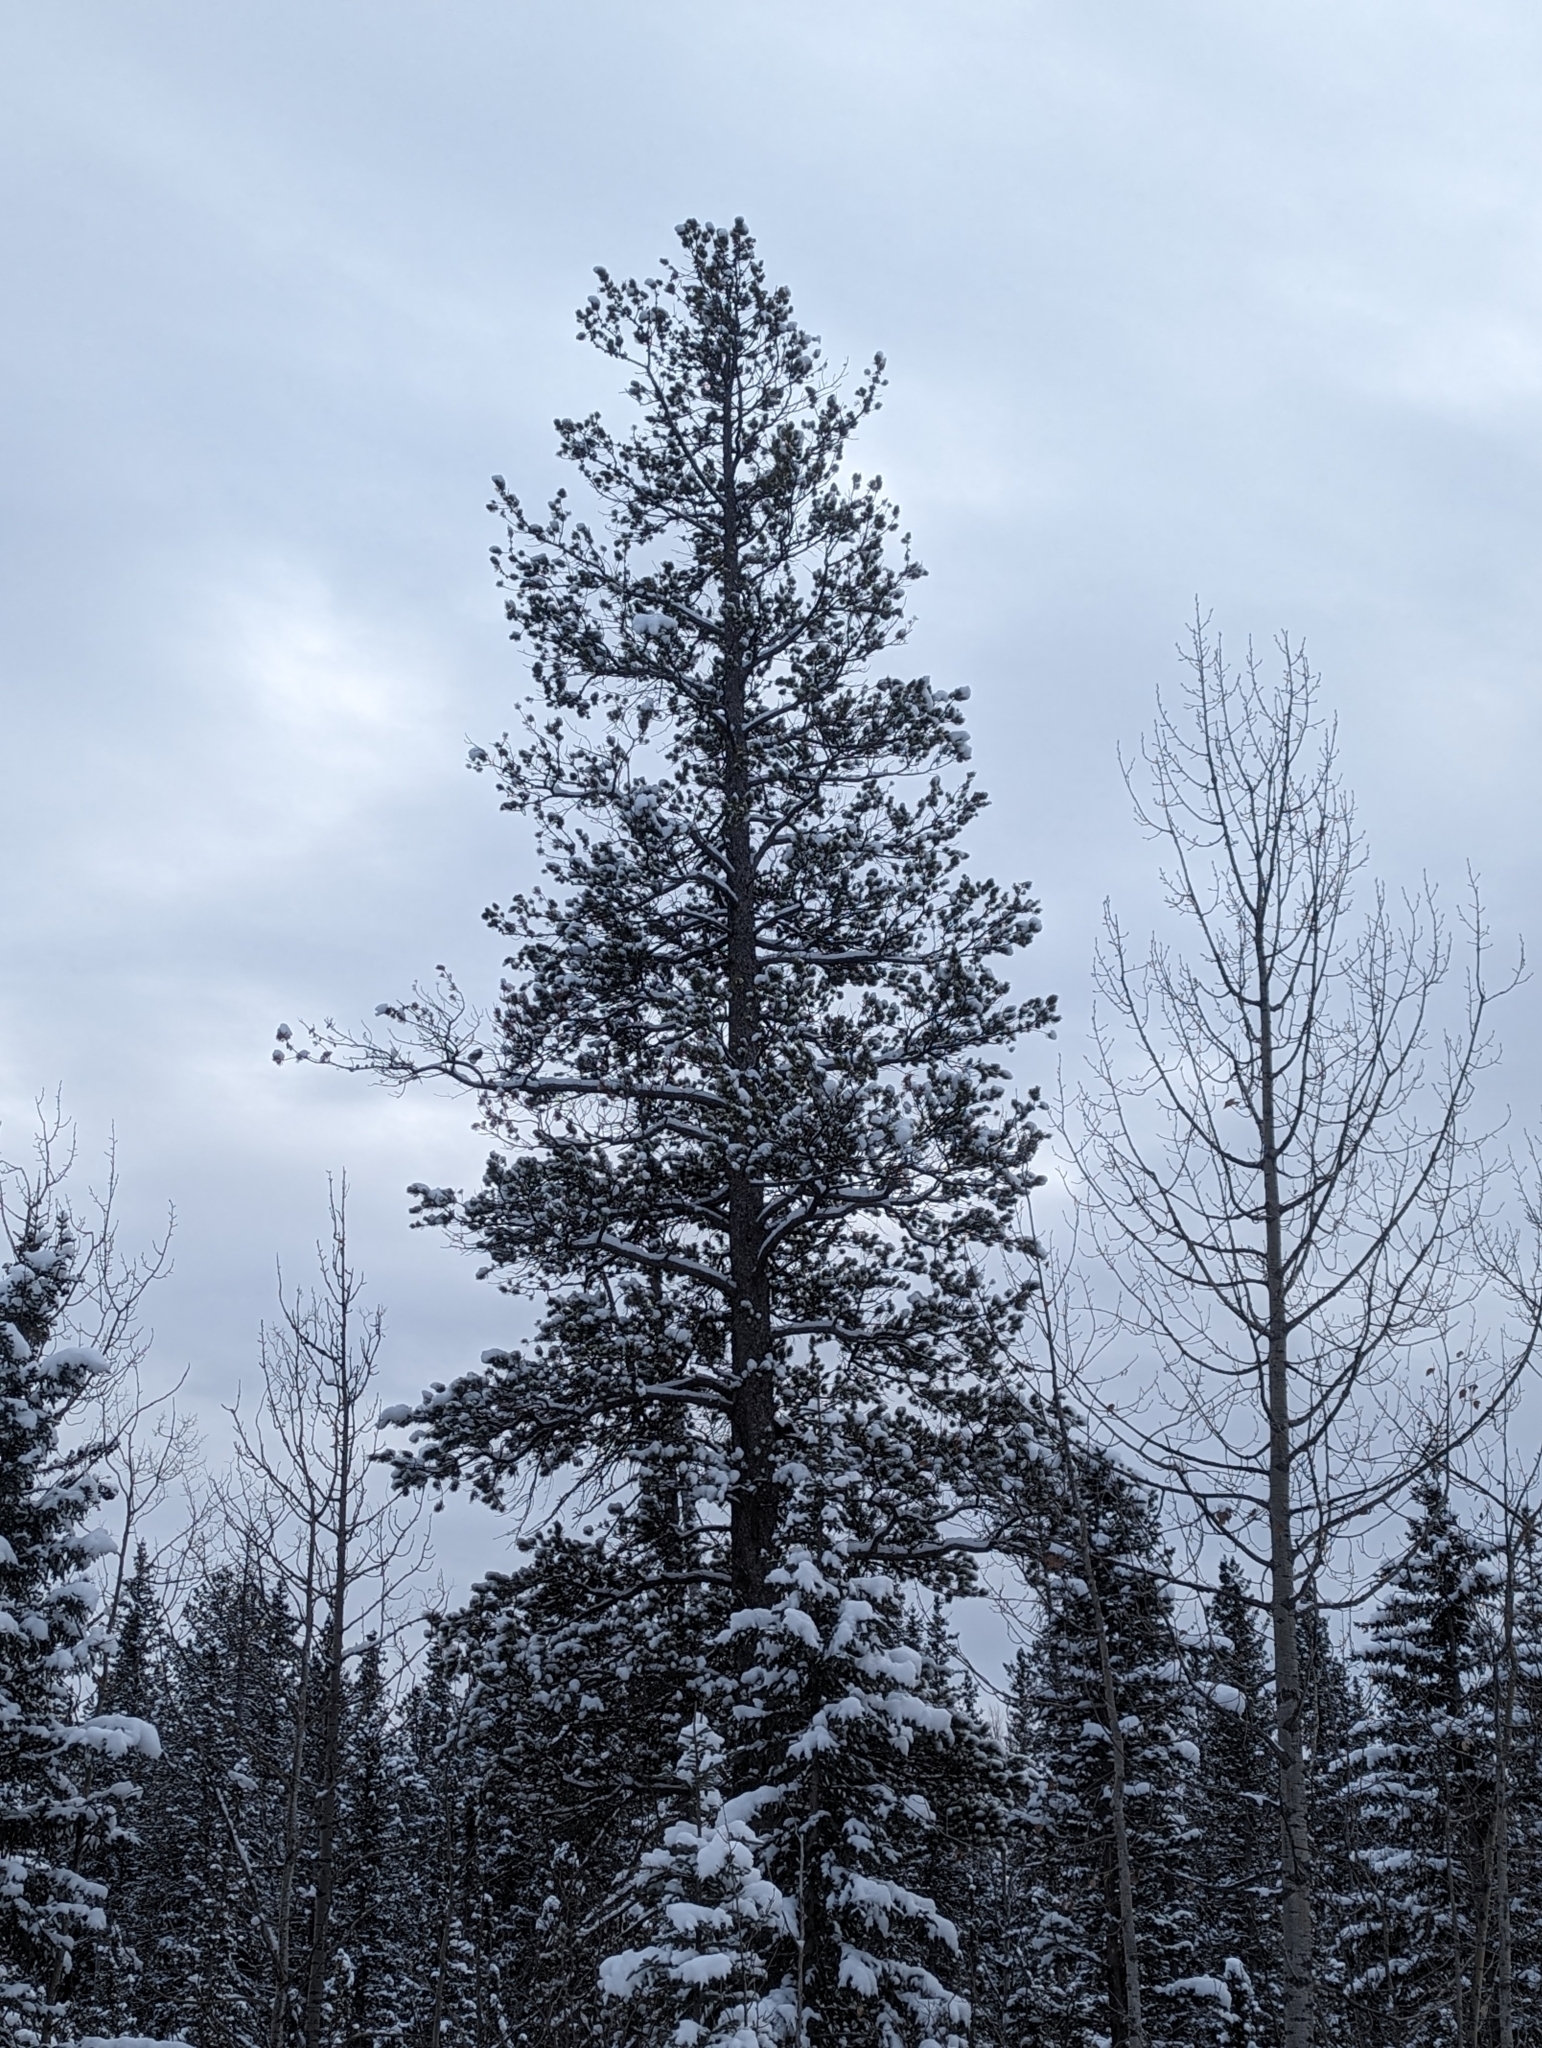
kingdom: Plantae
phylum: Tracheophyta
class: Pinopsida
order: Pinales
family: Pinaceae
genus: Pinus
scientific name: Pinus contorta
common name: Lodgepole pine
